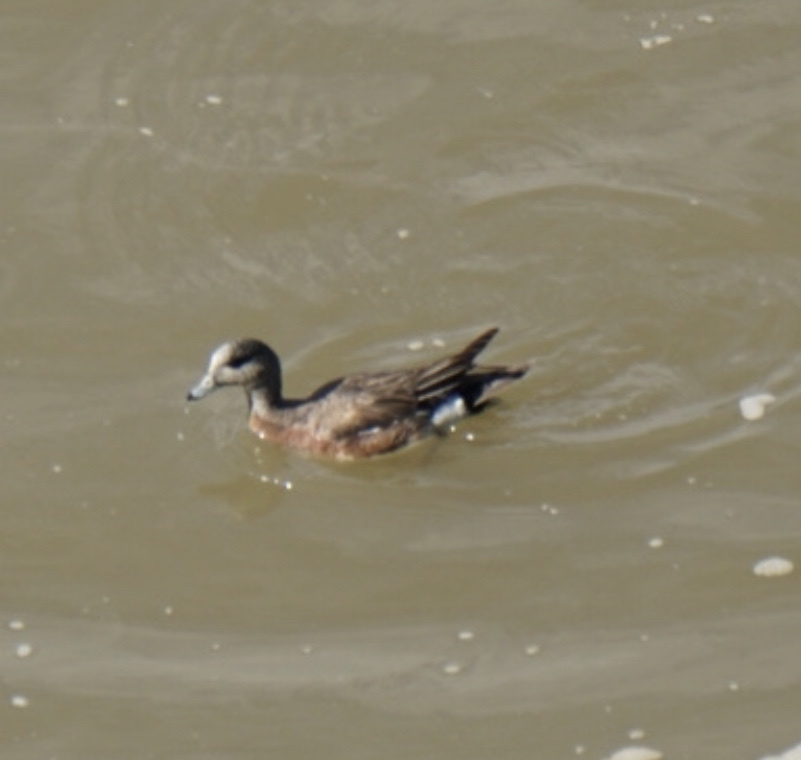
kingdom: Animalia
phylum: Chordata
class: Aves
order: Anseriformes
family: Anatidae
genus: Mareca
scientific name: Mareca americana
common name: American wigeon
